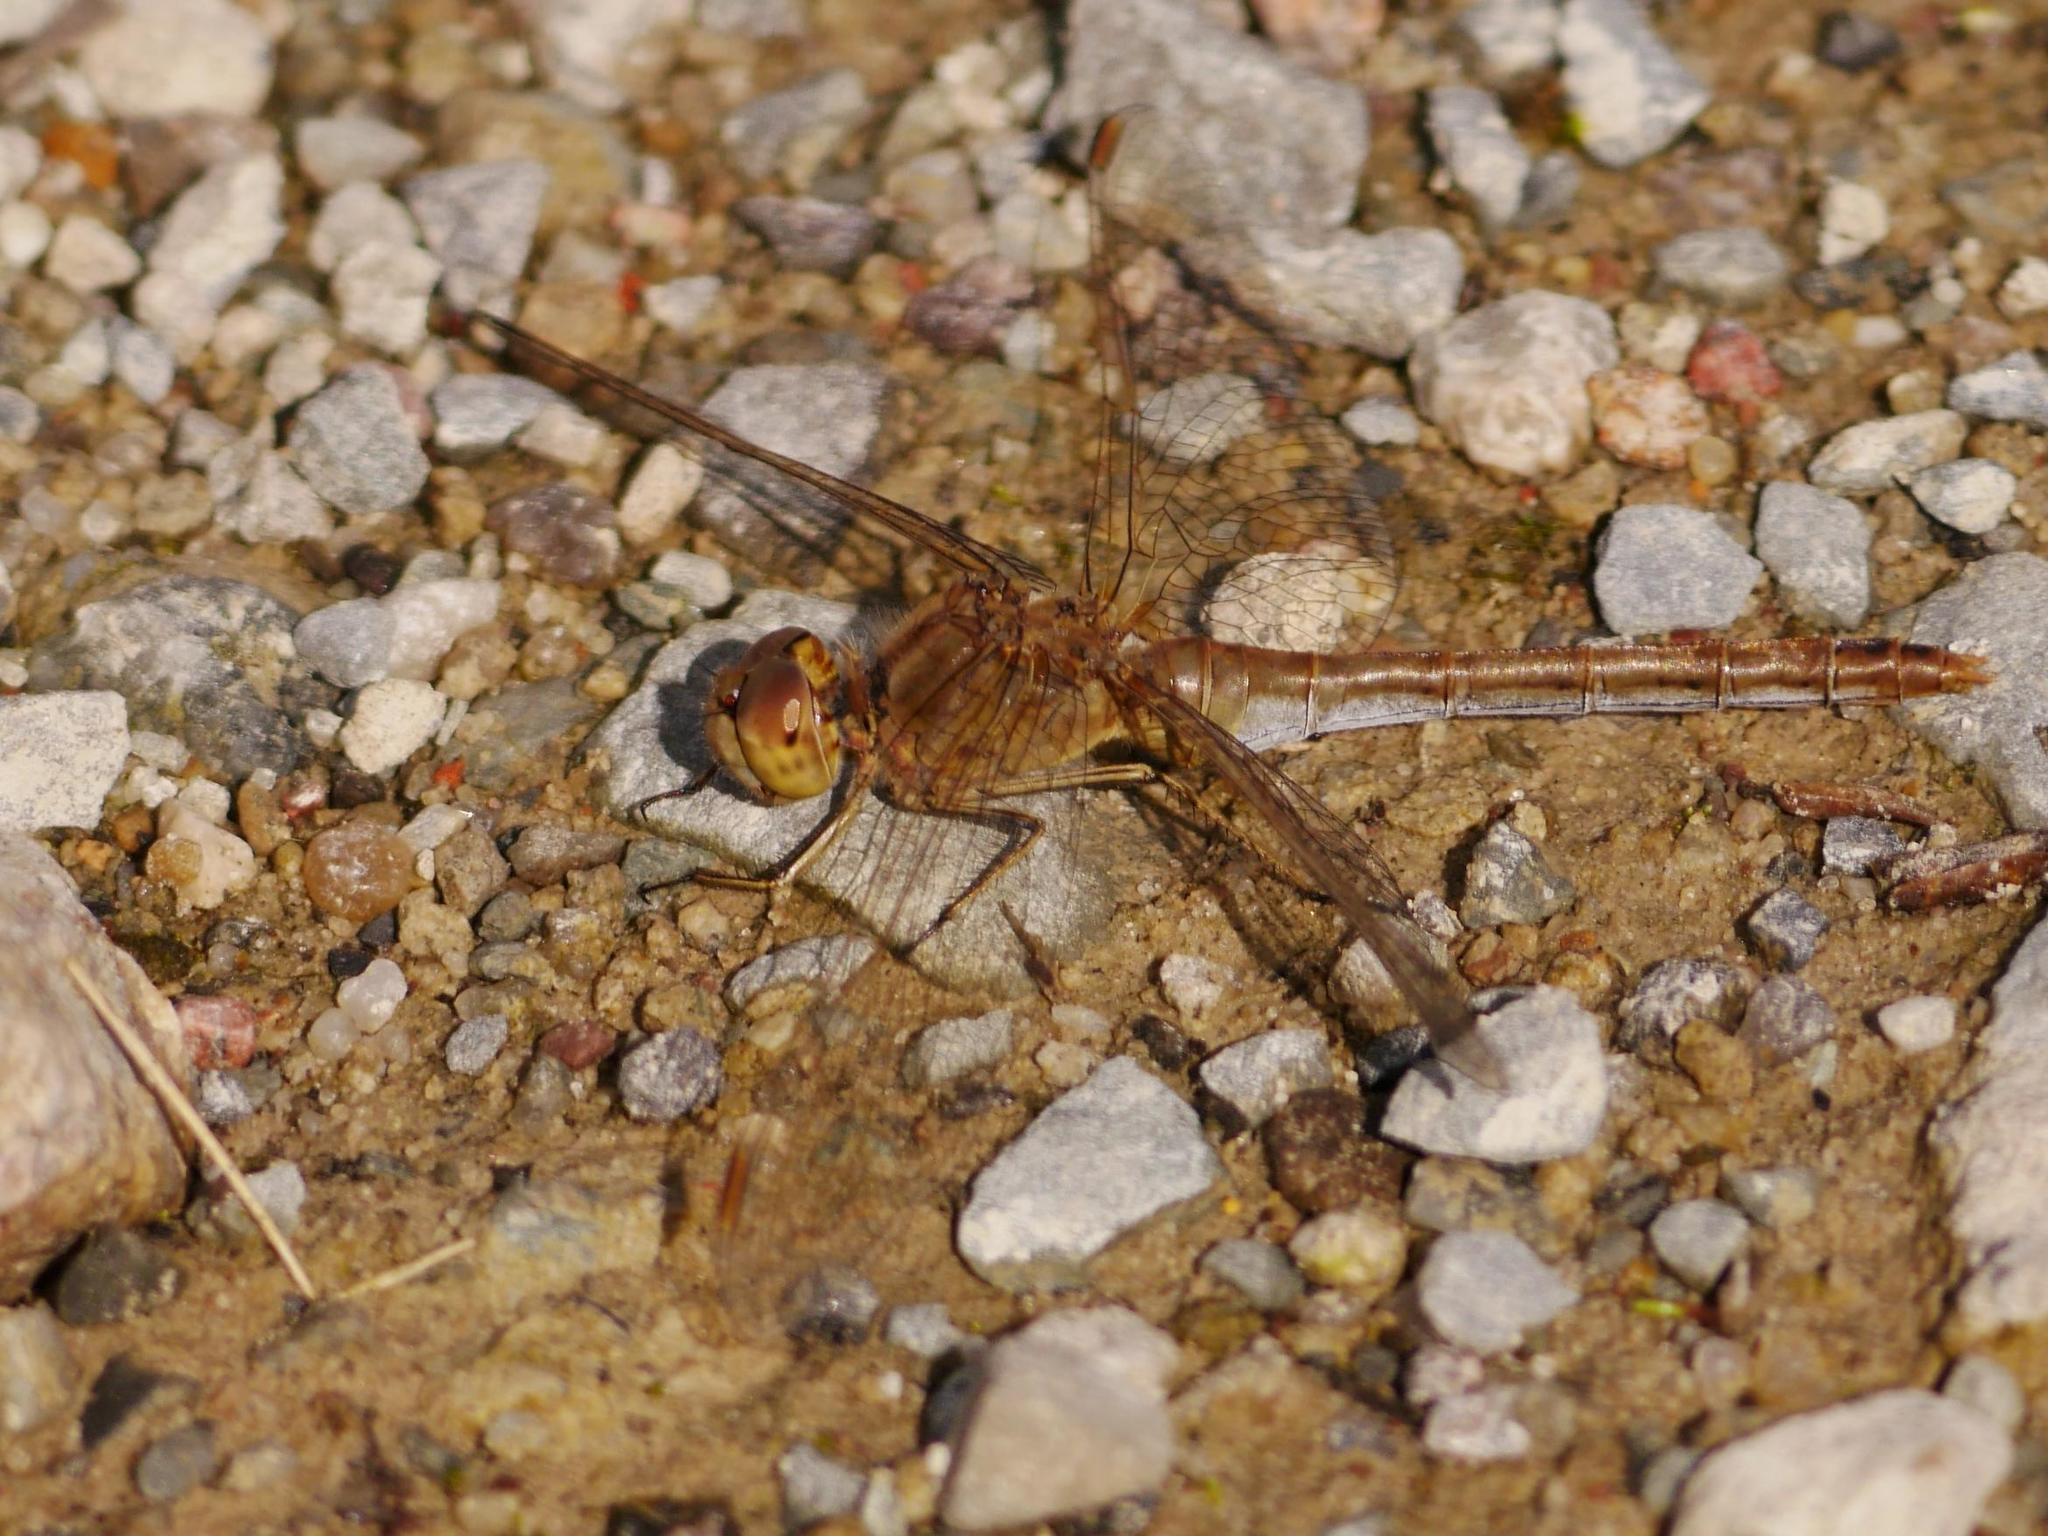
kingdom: Animalia
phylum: Arthropoda
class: Insecta
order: Odonata
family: Libellulidae
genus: Sympetrum
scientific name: Sympetrum meridionale
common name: Southern darter
